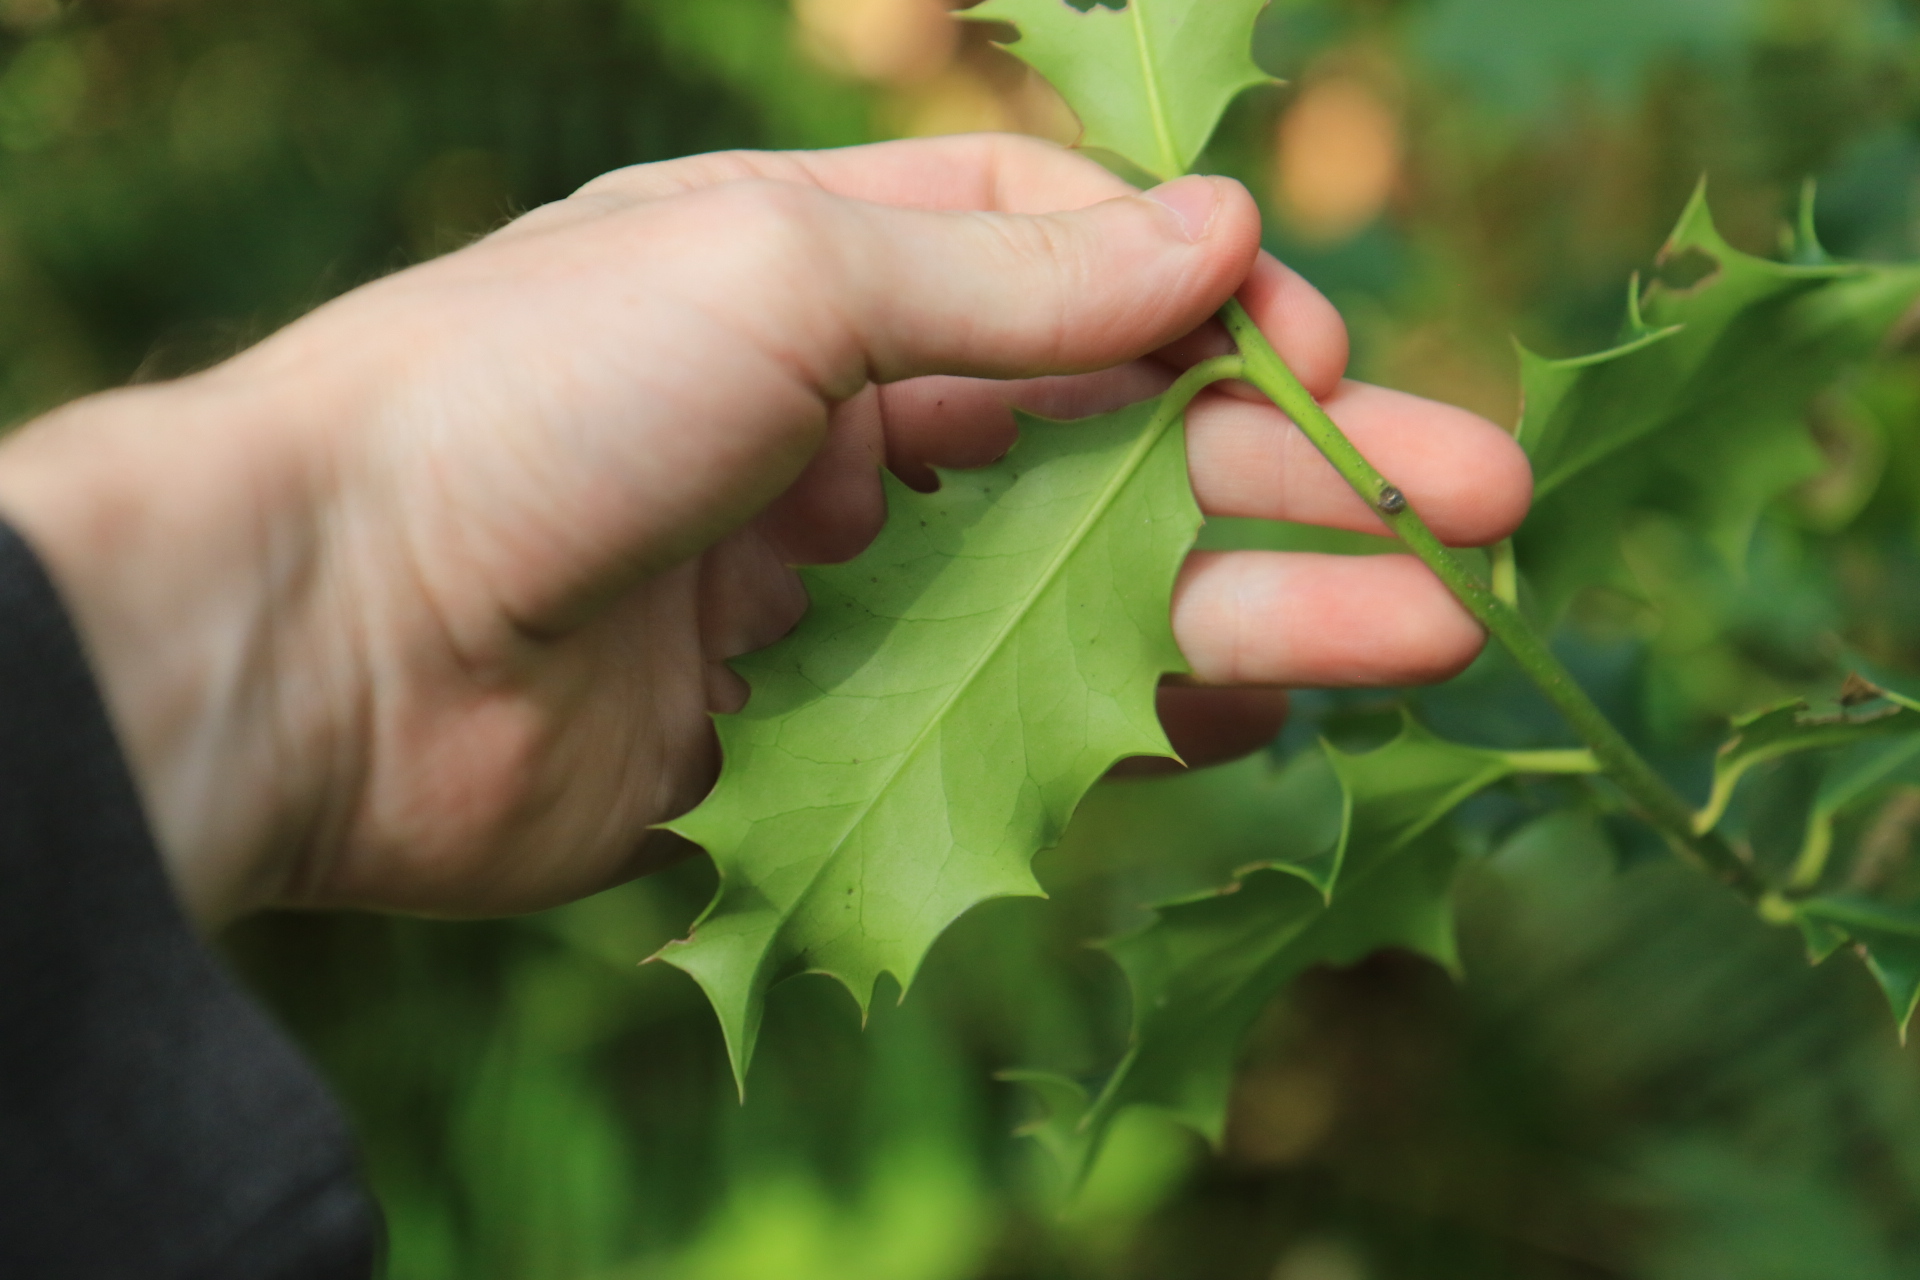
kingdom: Plantae
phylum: Tracheophyta
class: Magnoliopsida
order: Aquifoliales
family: Aquifoliaceae
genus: Ilex
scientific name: Ilex aquifolium
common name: English holly
